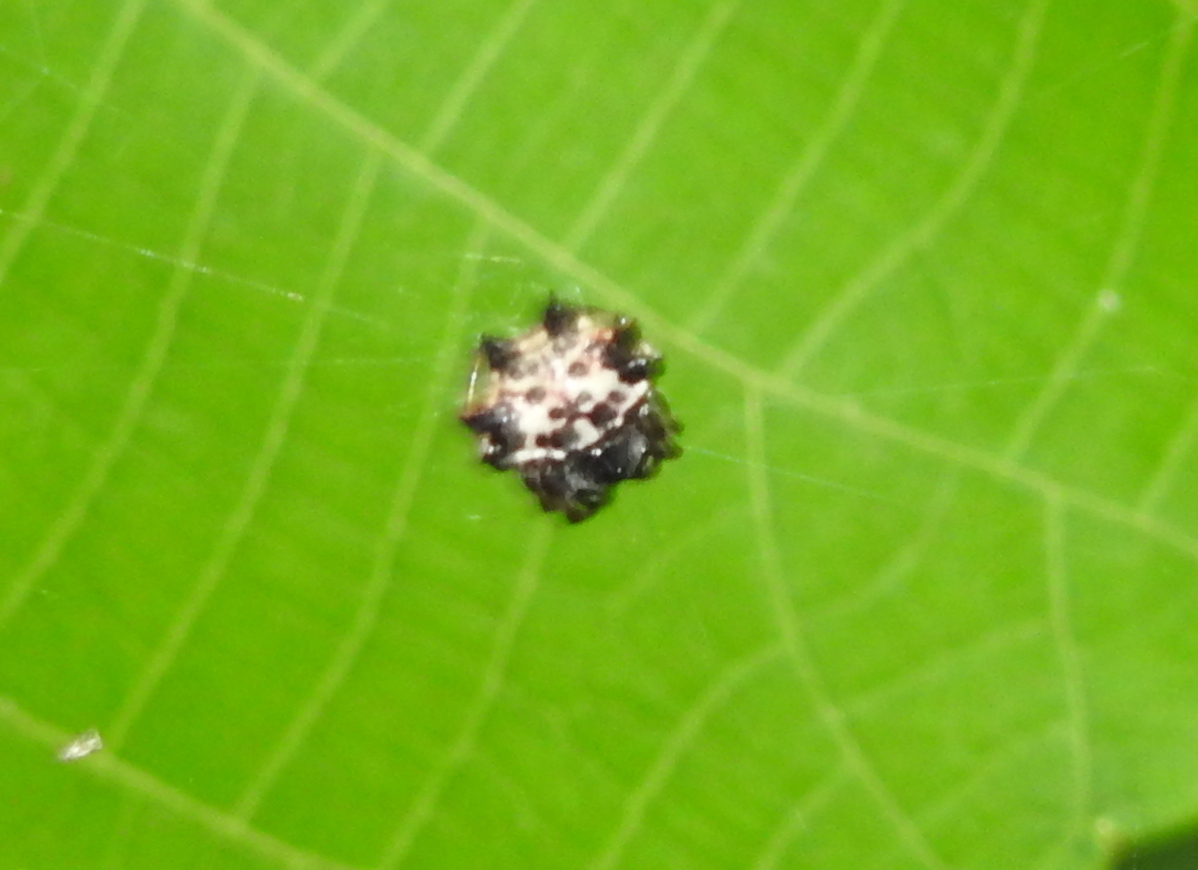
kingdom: Animalia
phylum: Arthropoda
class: Arachnida
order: Araneae
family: Araneidae
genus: Gasteracantha
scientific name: Gasteracantha kuhli
